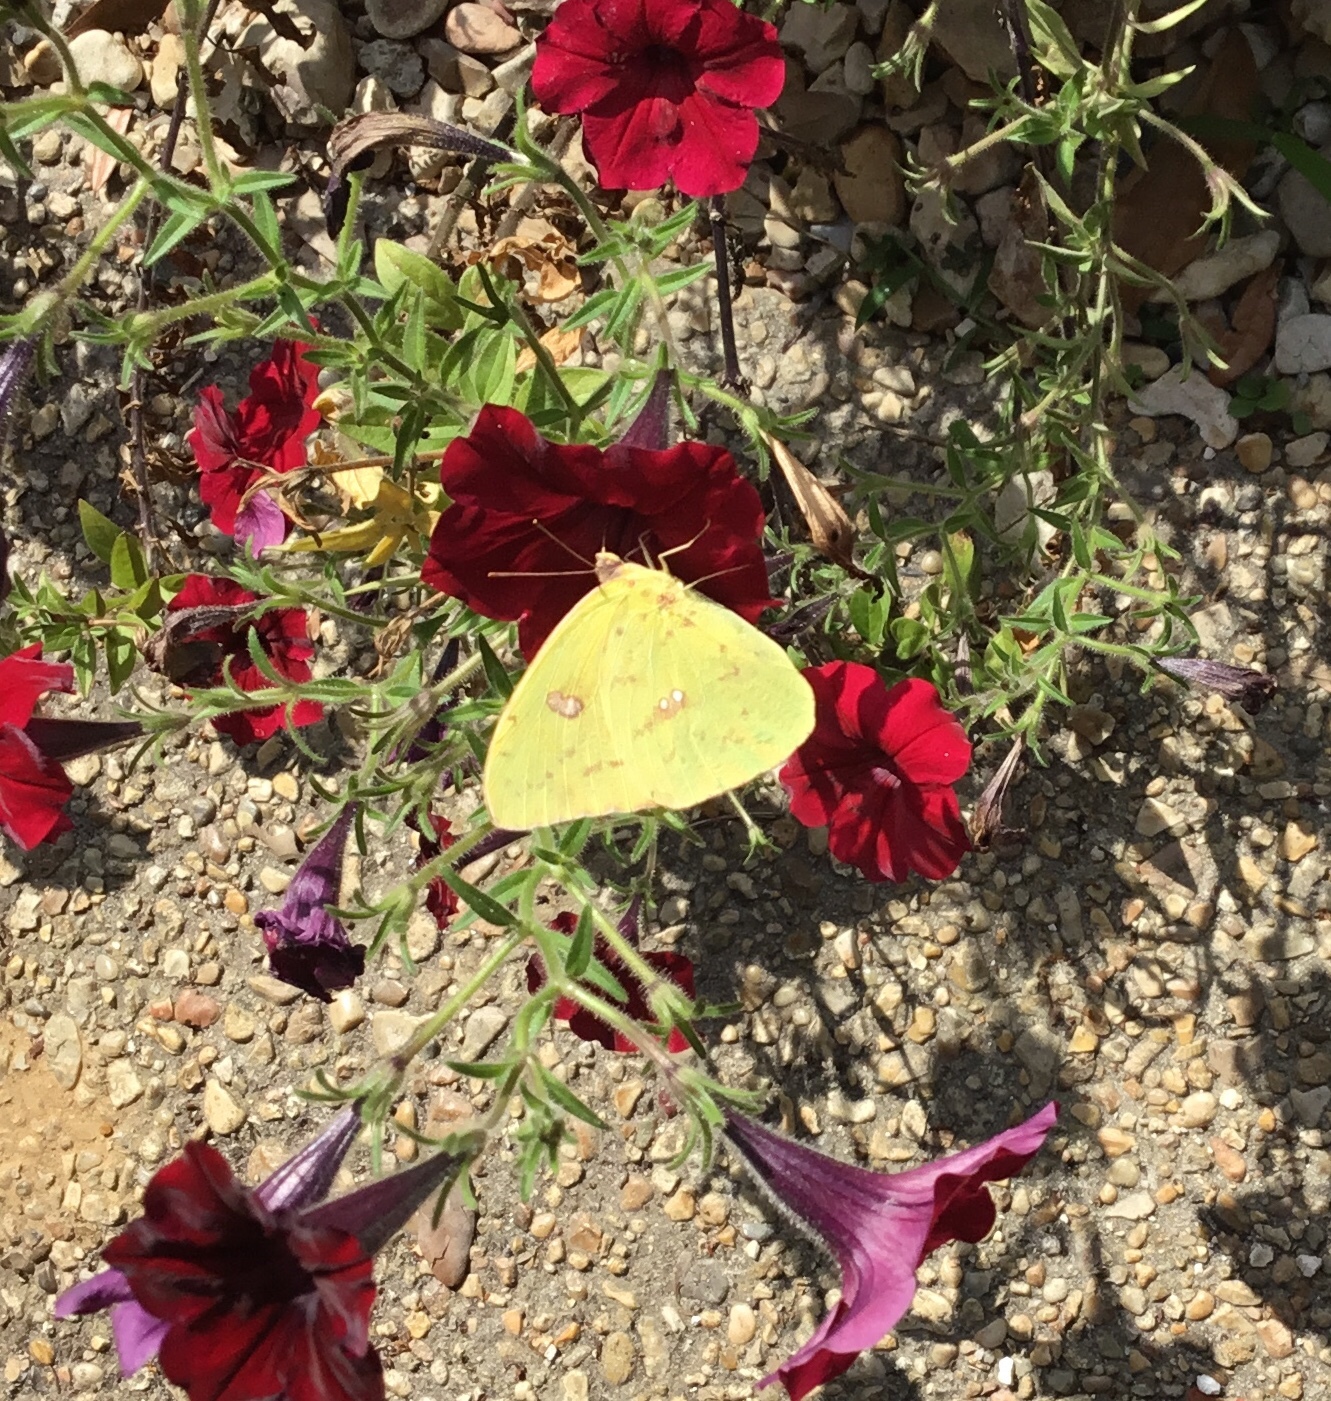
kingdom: Animalia
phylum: Arthropoda
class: Insecta
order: Lepidoptera
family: Pieridae
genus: Phoebis
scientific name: Phoebis sennae
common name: Cloudless sulphur
